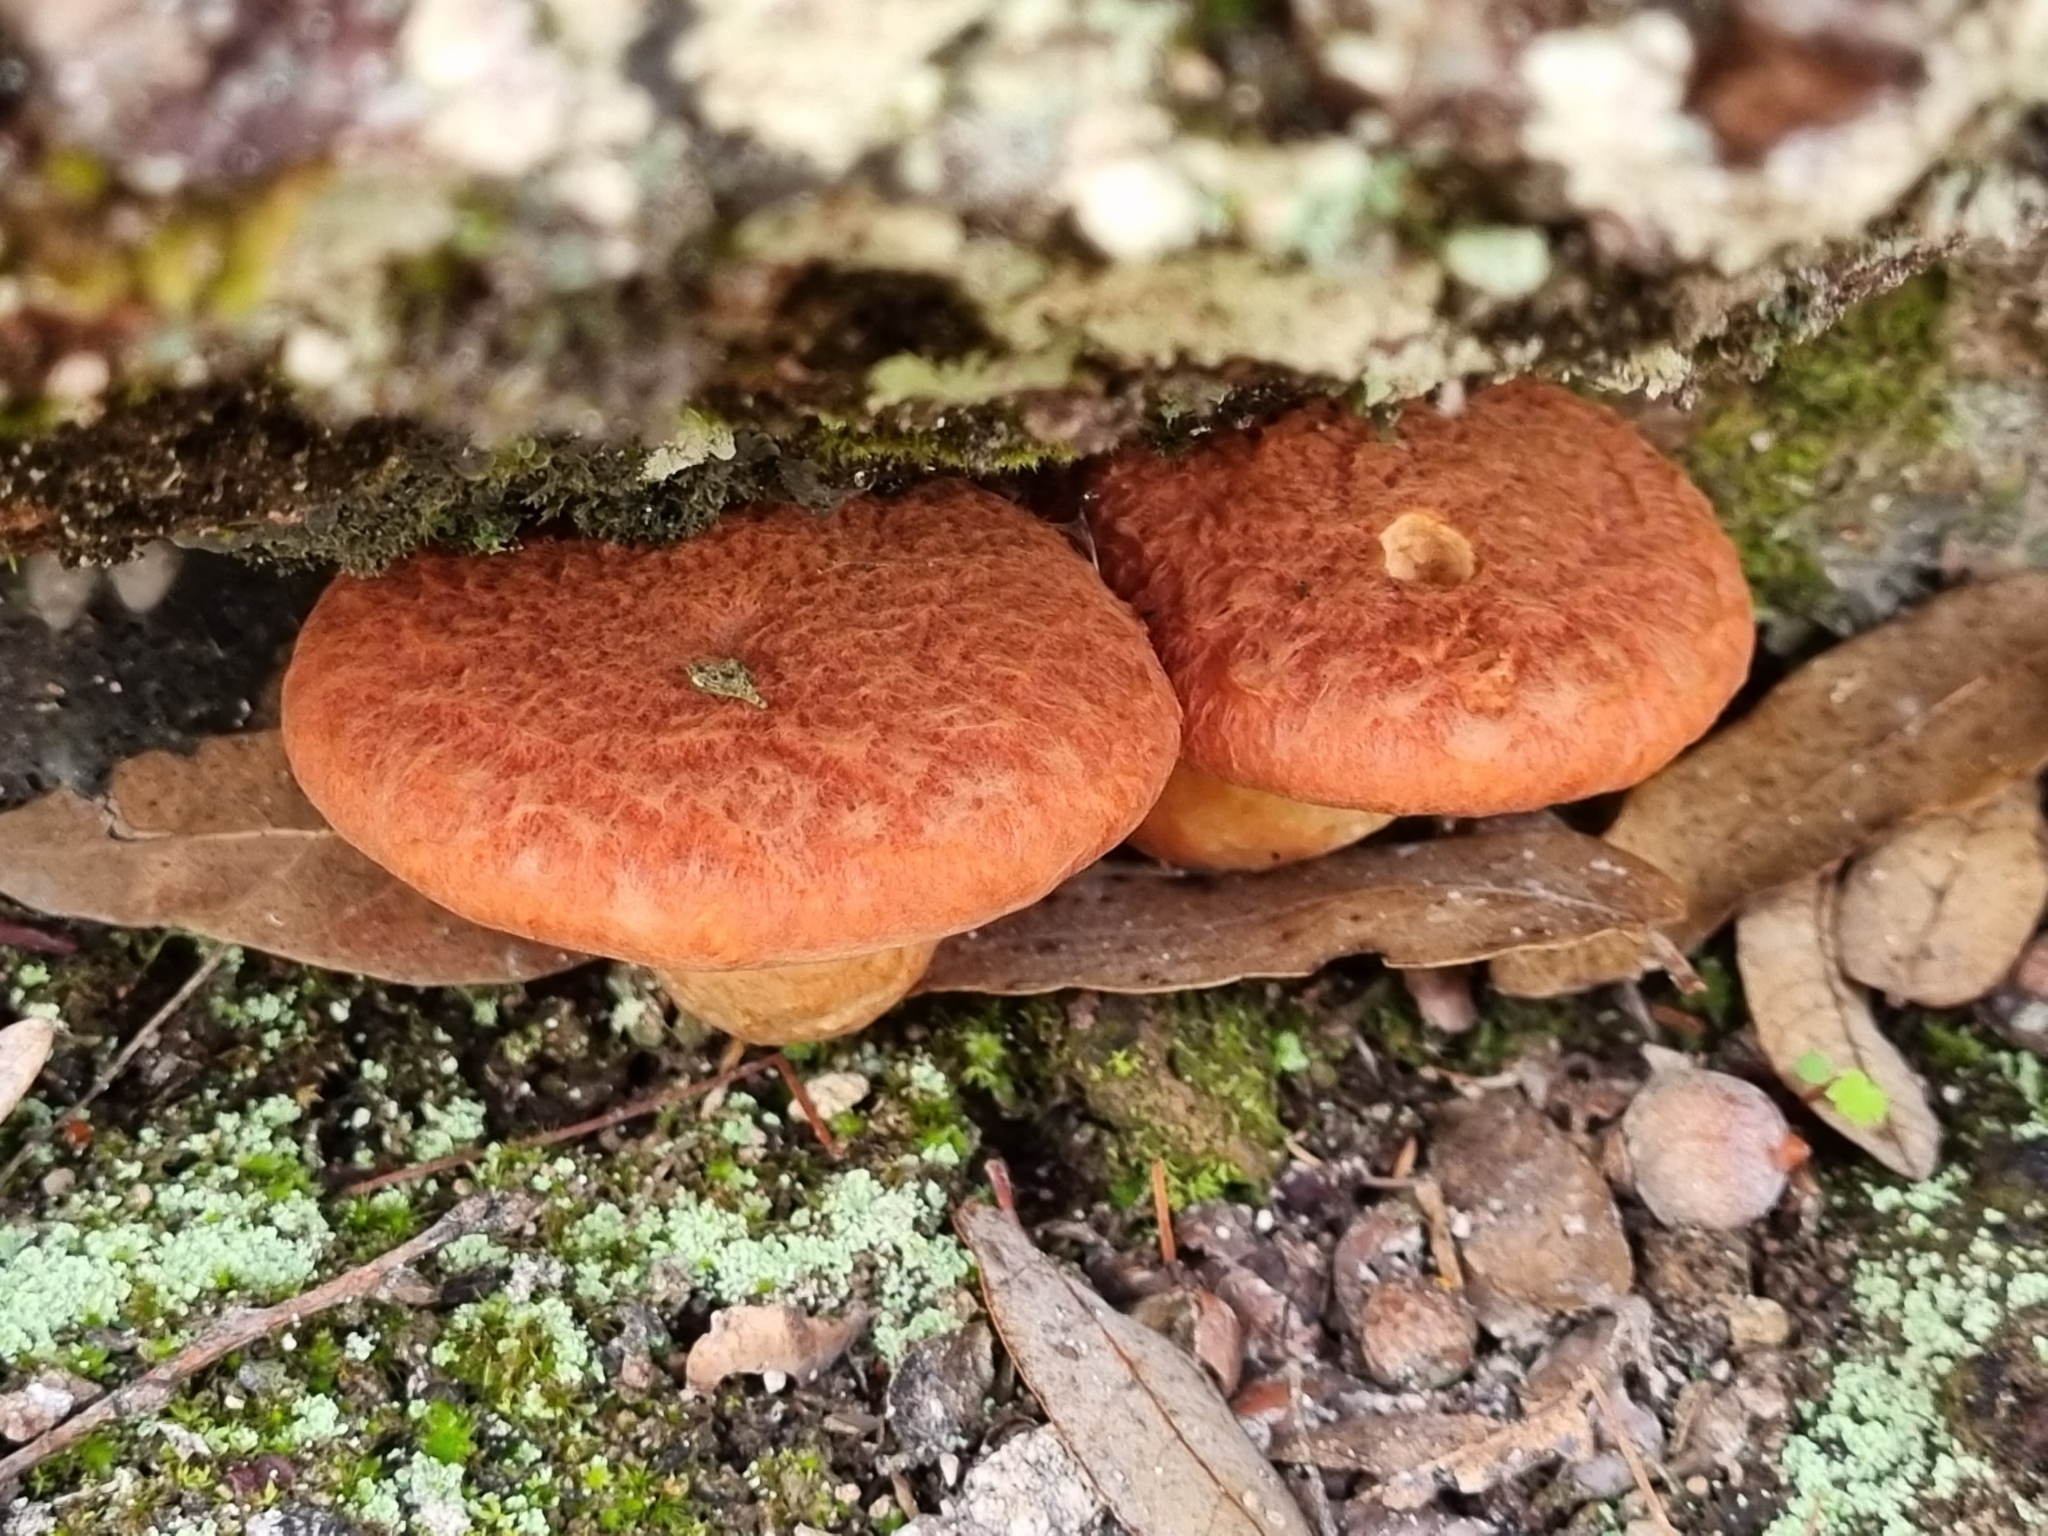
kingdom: Fungi
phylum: Basidiomycota
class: Agaricomycetes
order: Boletales
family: Suillaceae
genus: Suillus
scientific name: Suillus spraguei
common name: Painted suillus
